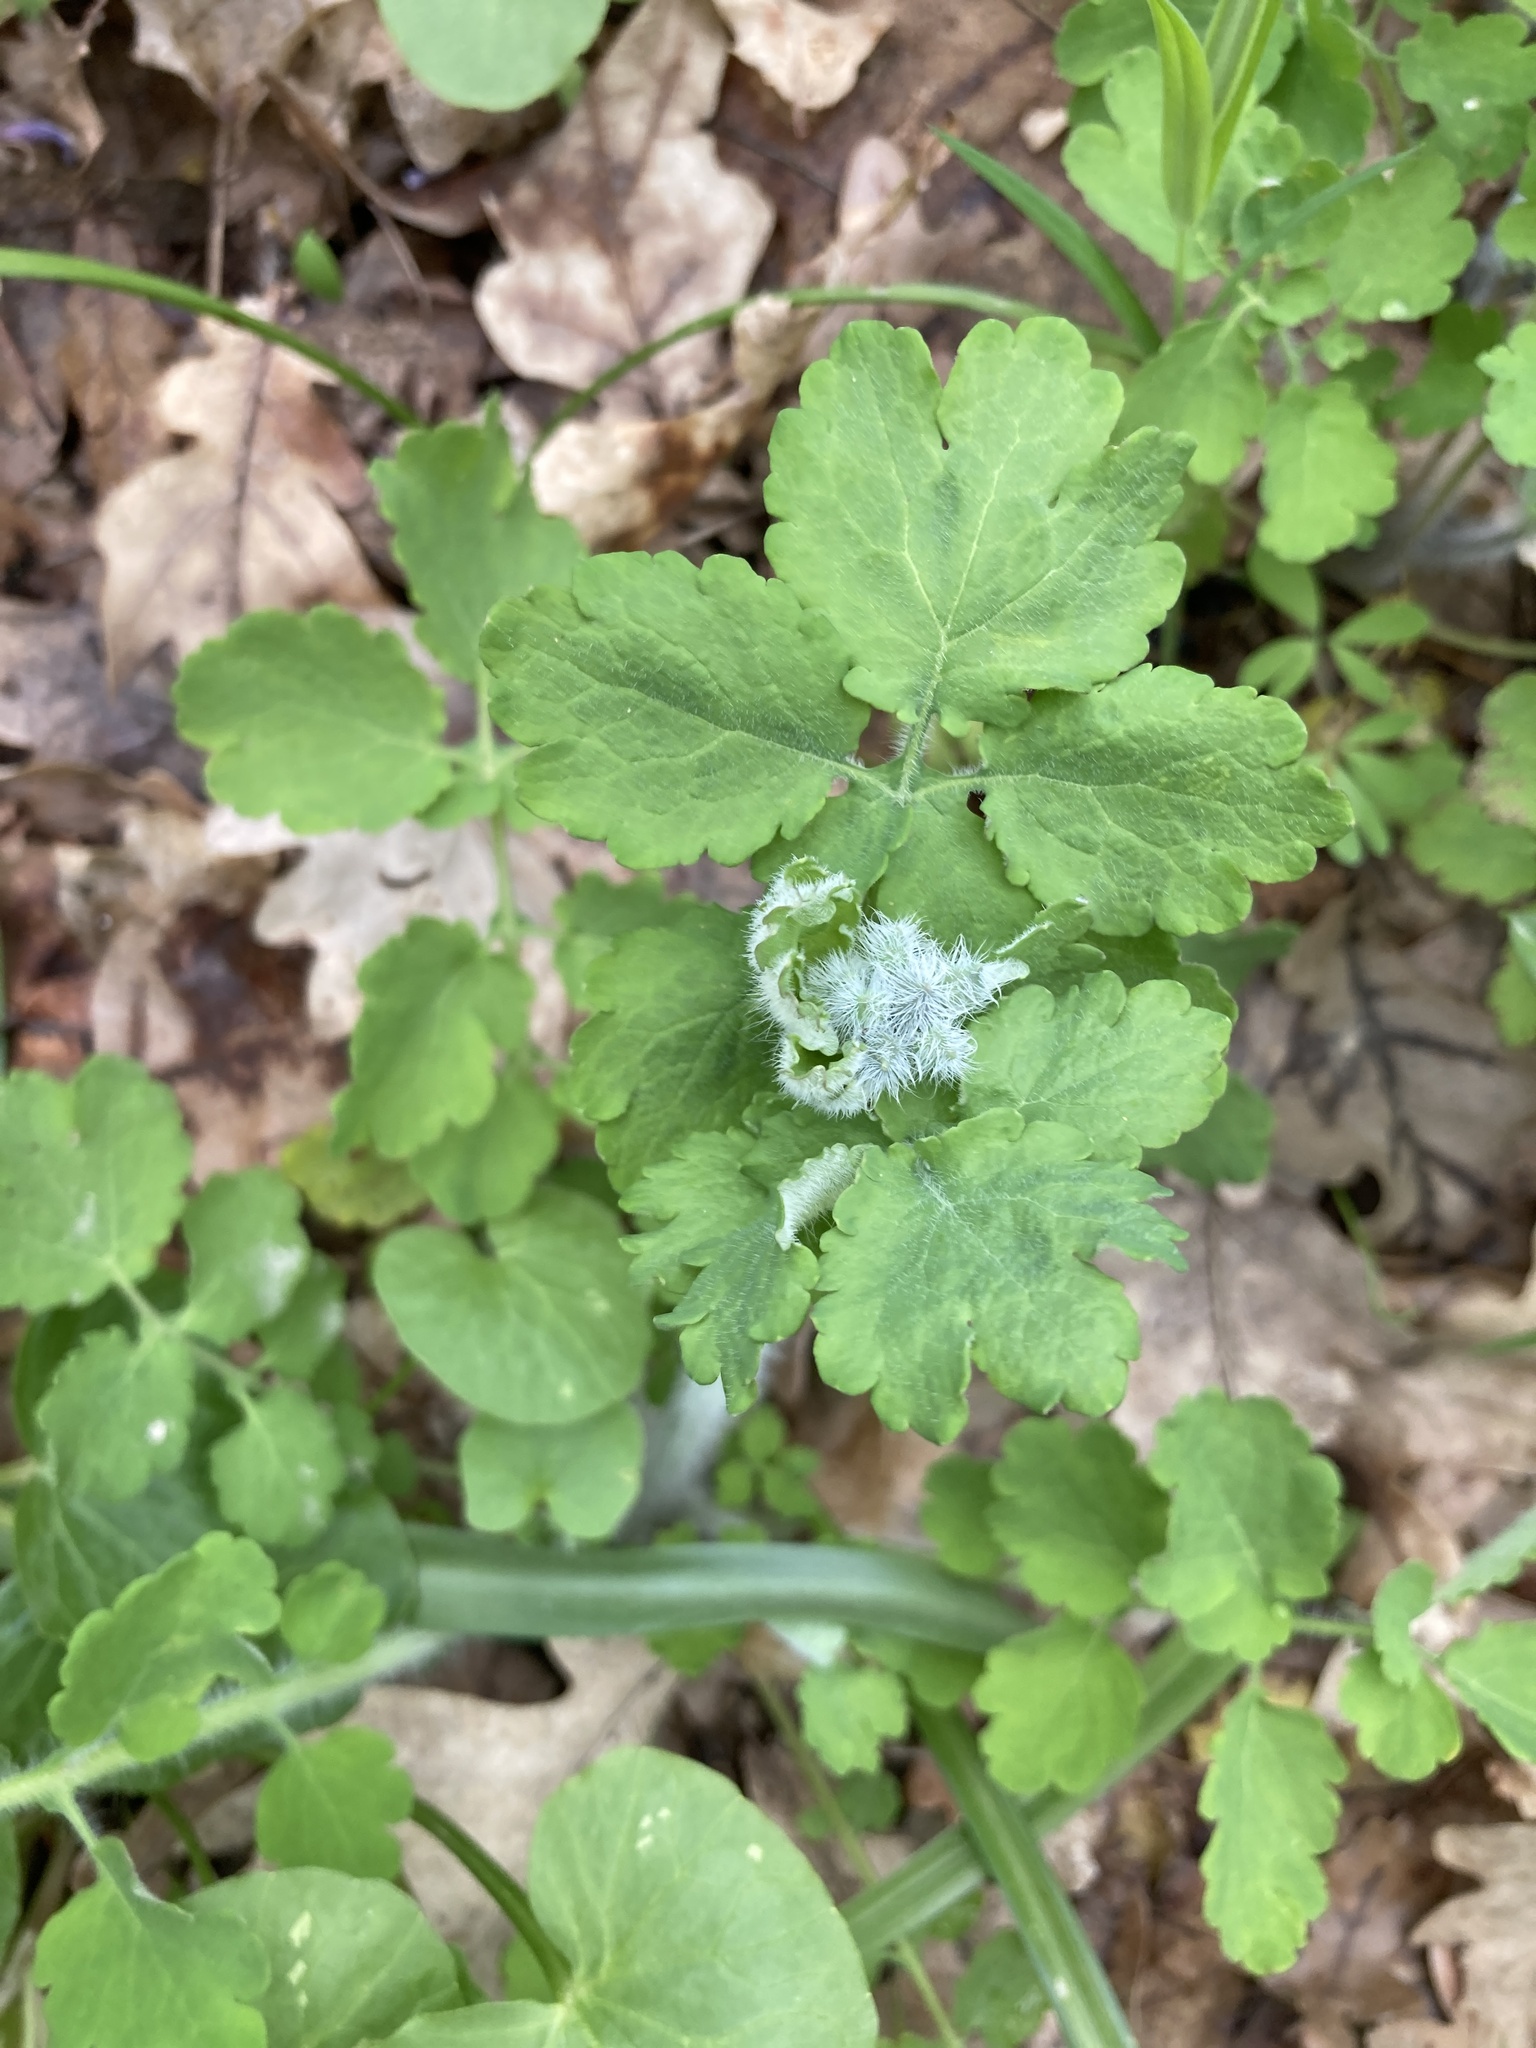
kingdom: Plantae
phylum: Tracheophyta
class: Magnoliopsida
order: Ranunculales
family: Papaveraceae
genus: Chelidonium
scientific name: Chelidonium majus
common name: Greater celandine
